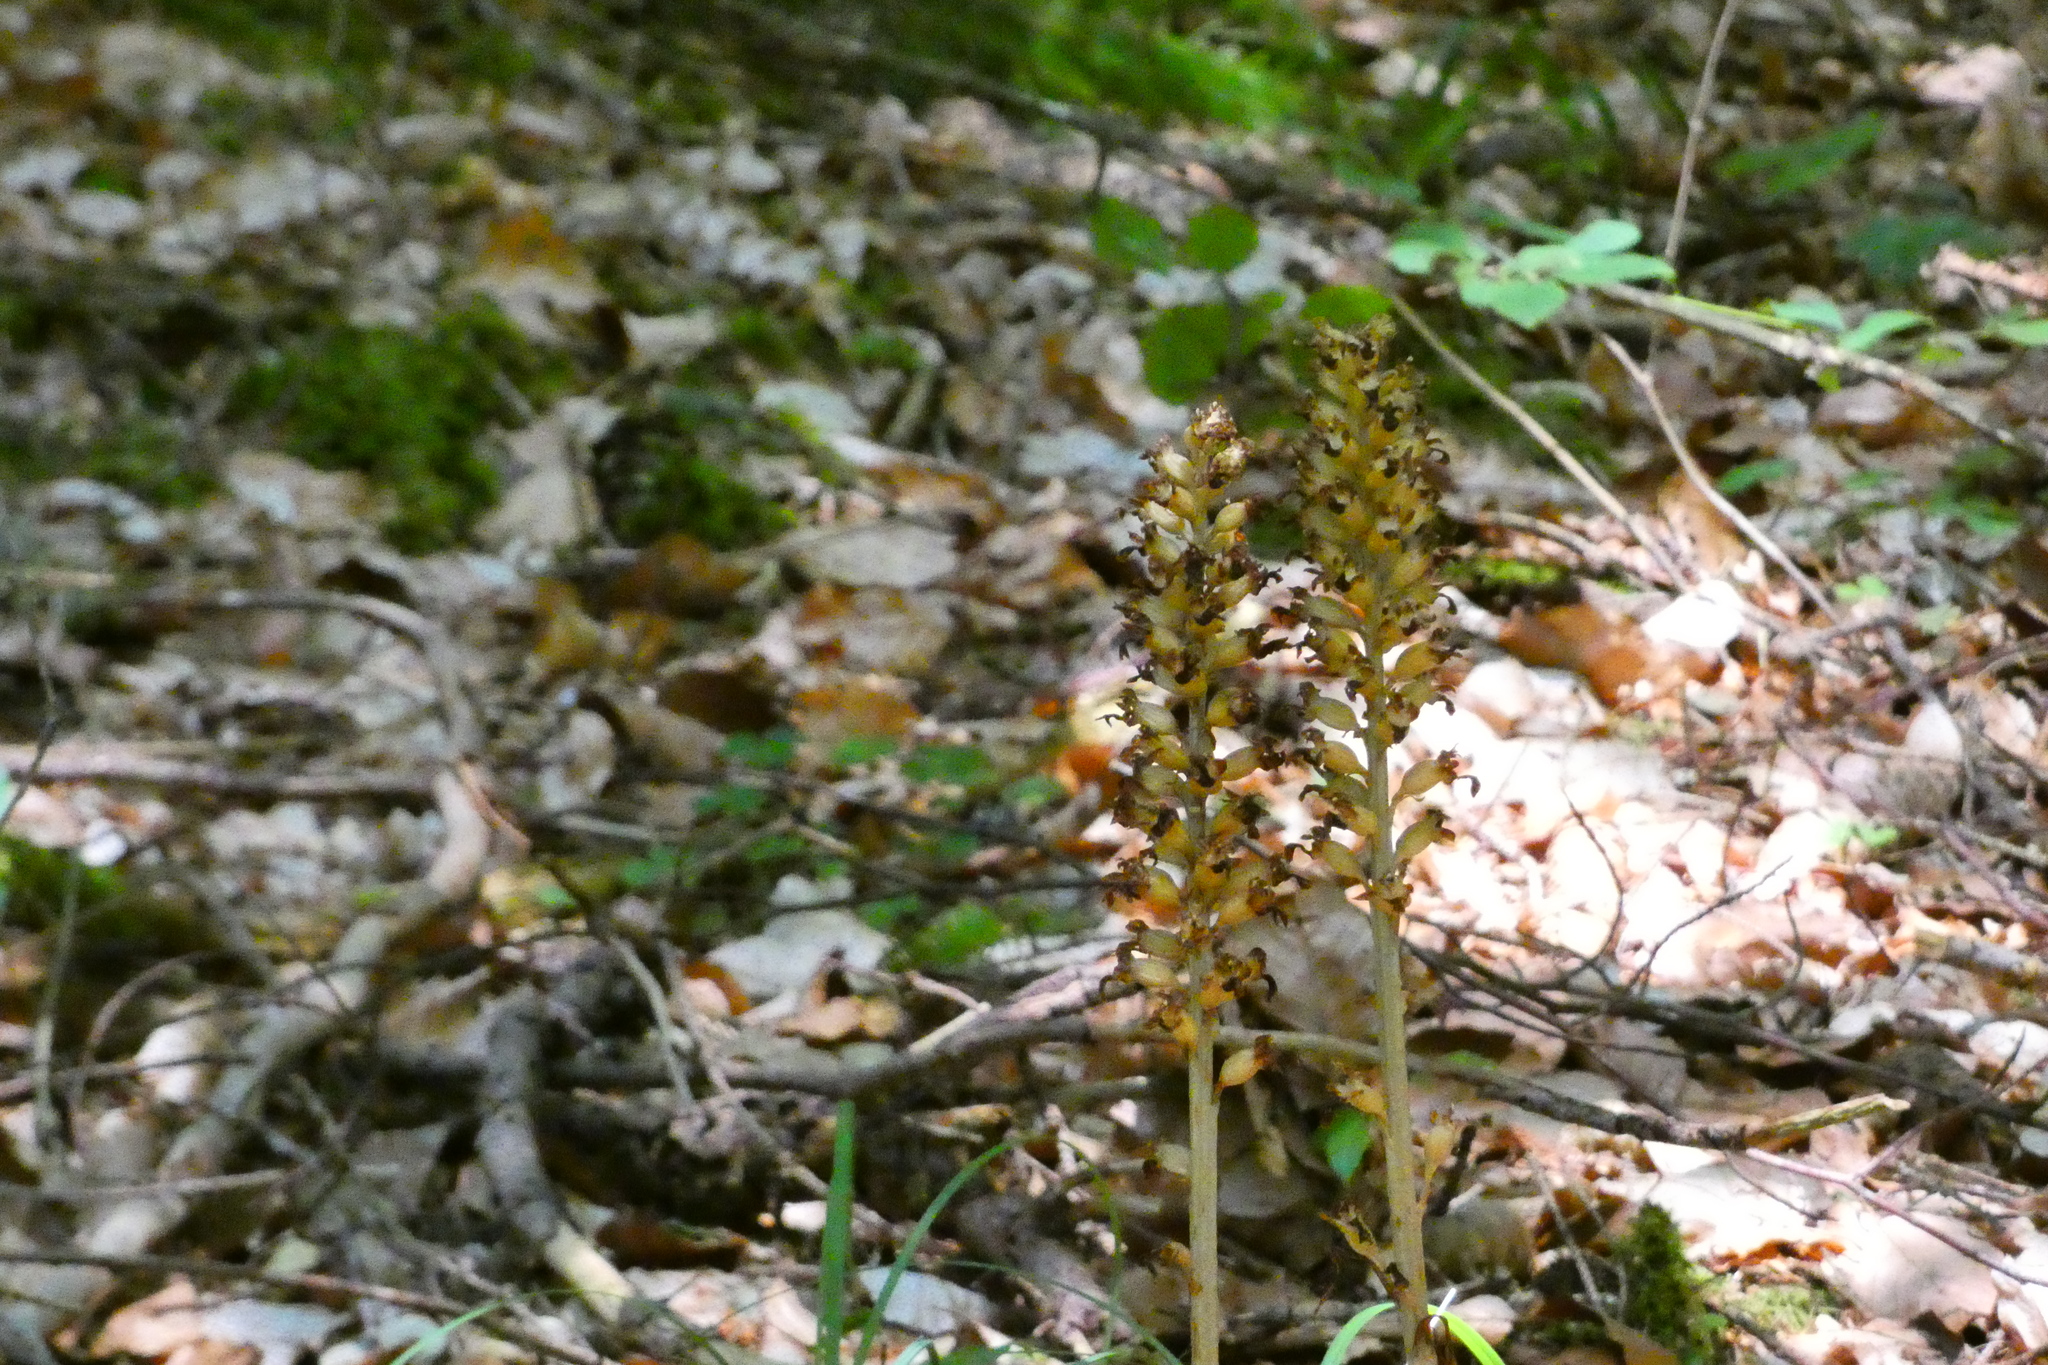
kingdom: Plantae
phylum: Tracheophyta
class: Liliopsida
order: Asparagales
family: Orchidaceae
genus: Neottia
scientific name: Neottia nidus-avis
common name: Bird's-nest orchid
